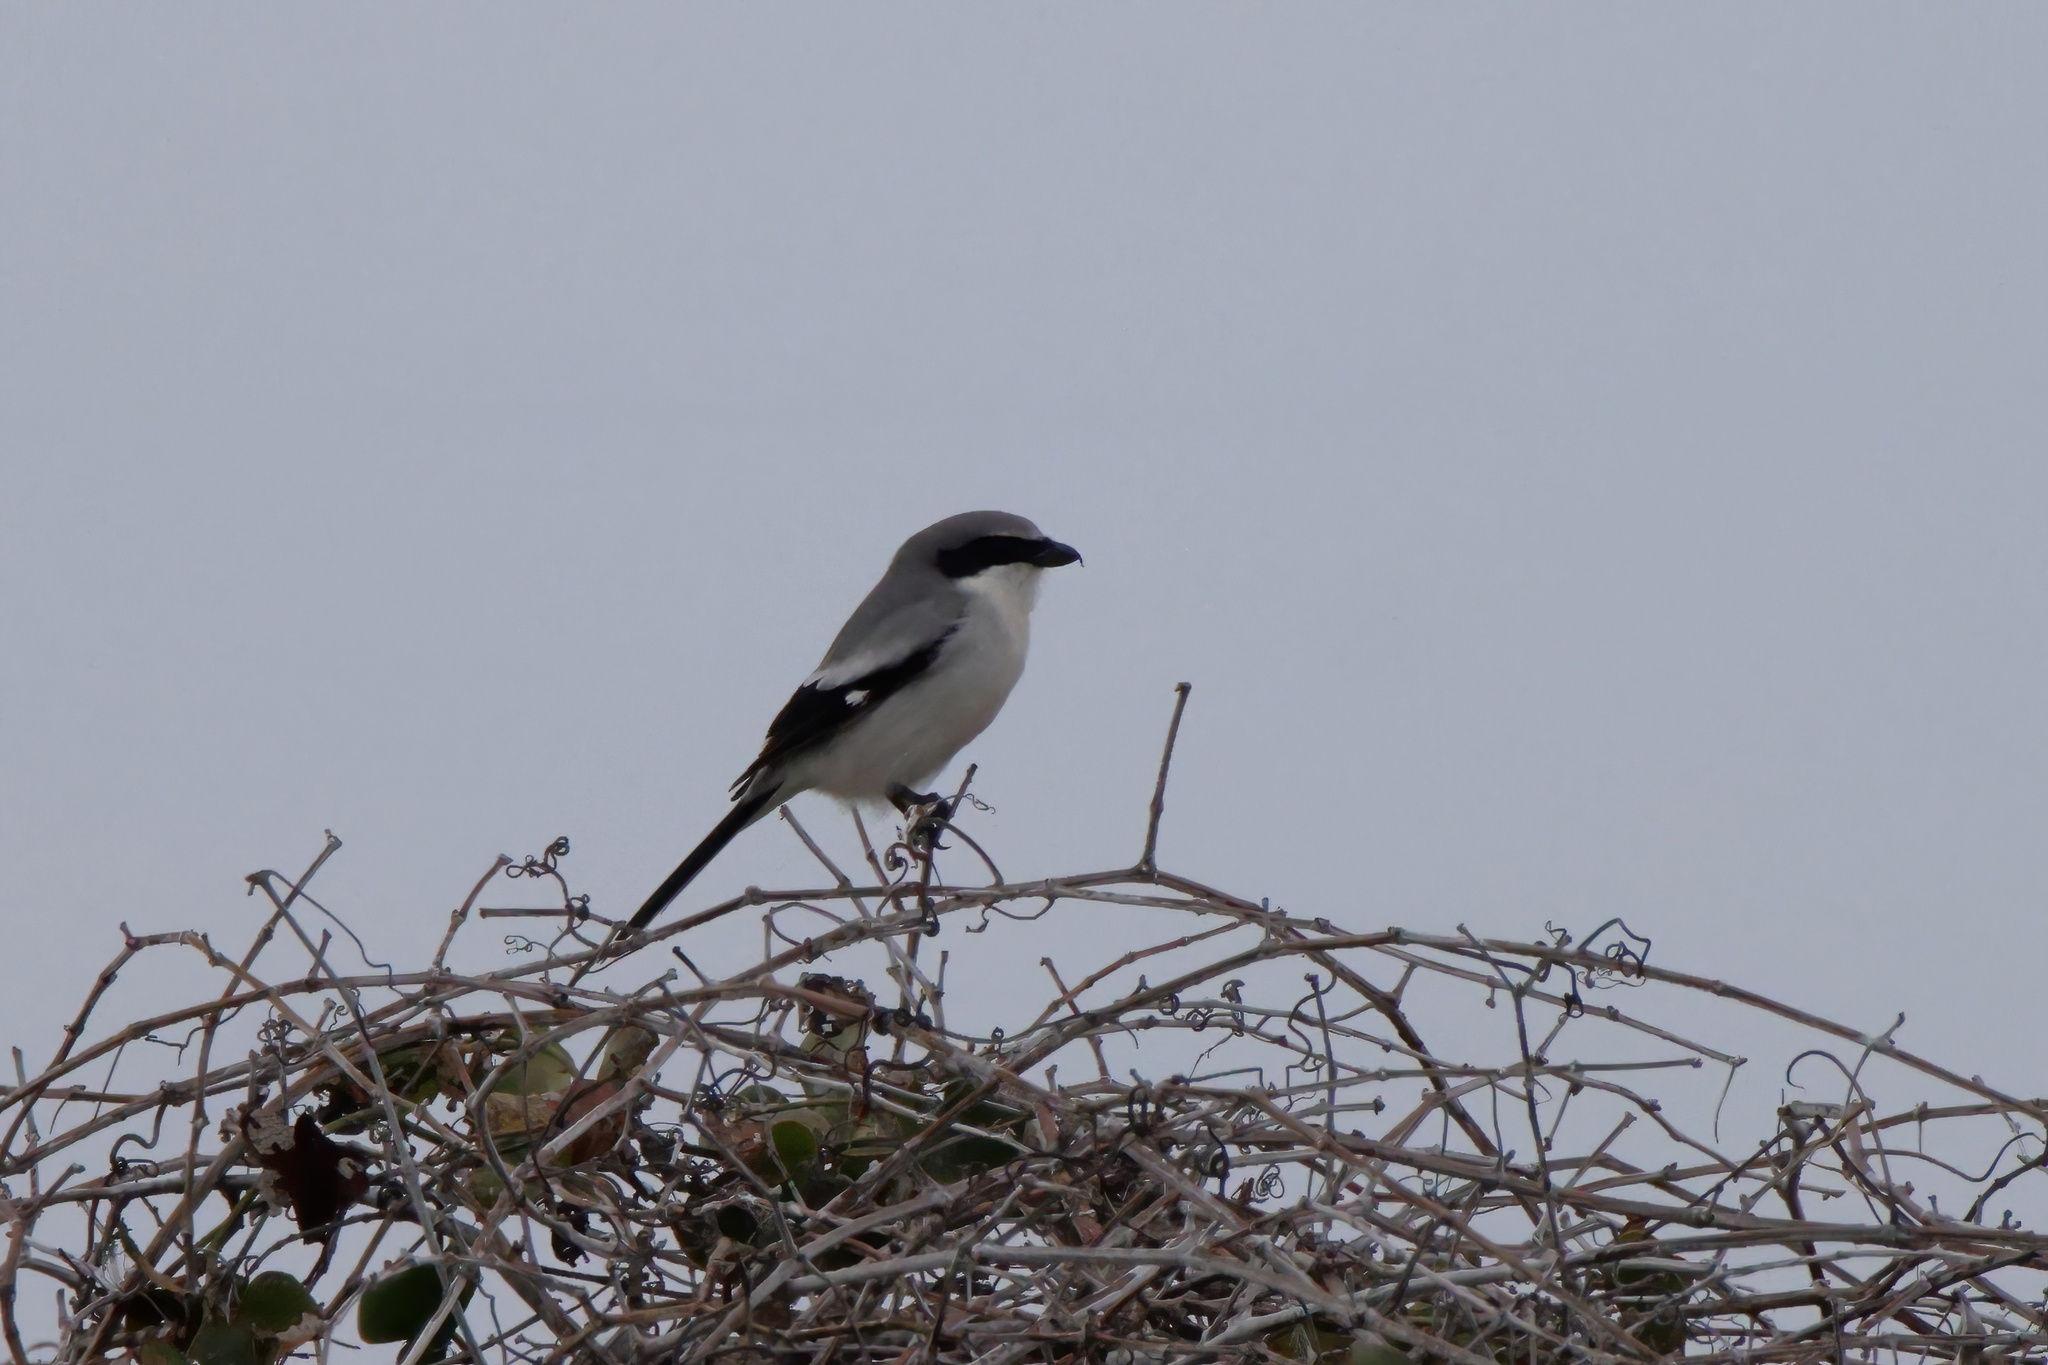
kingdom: Animalia
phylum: Chordata
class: Aves
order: Passeriformes
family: Laniidae
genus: Lanius
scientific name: Lanius ludovicianus
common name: Loggerhead shrike
